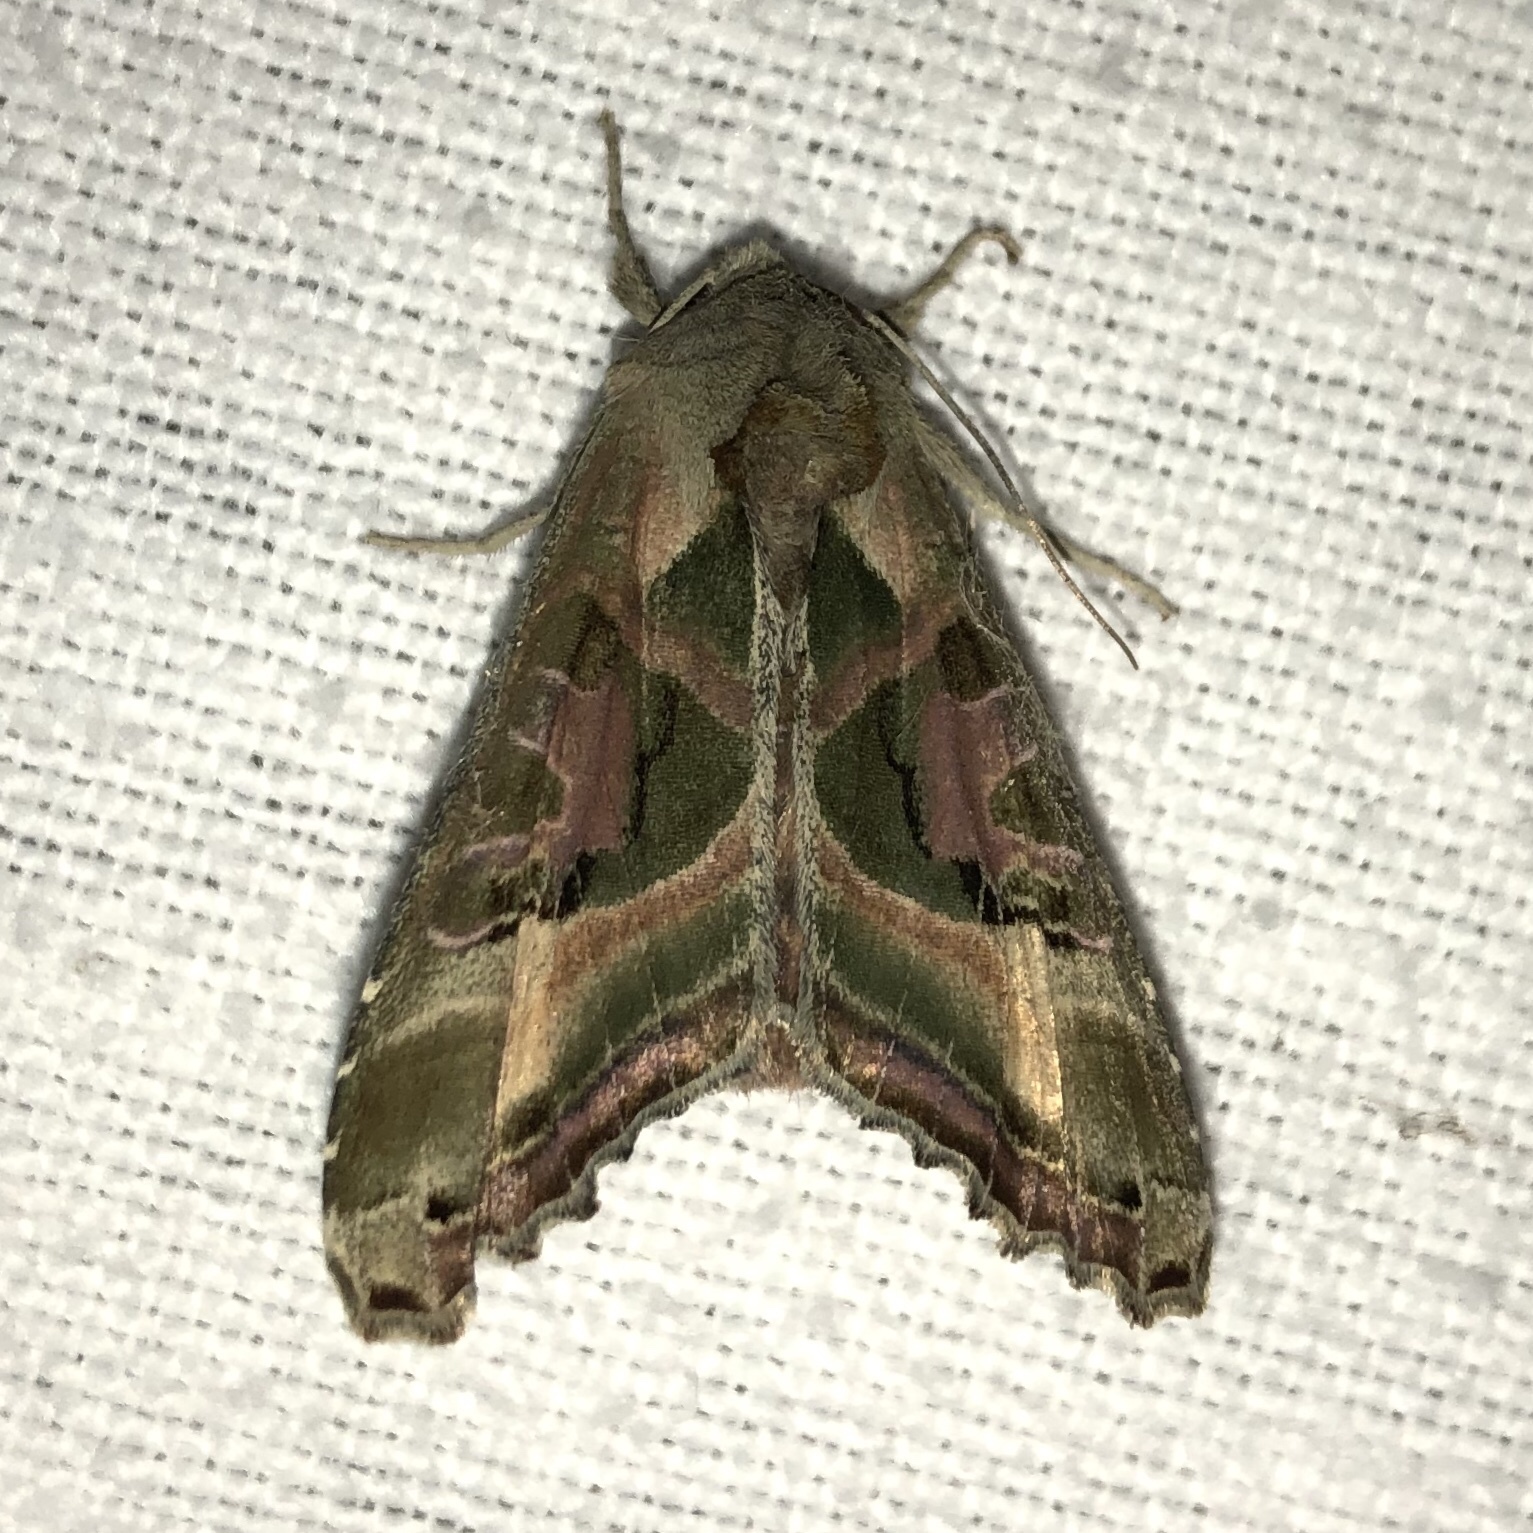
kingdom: Animalia
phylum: Arthropoda
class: Insecta
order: Lepidoptera
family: Noctuidae
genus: Phlogophora
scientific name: Phlogophora iris
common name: Olive angle shades
